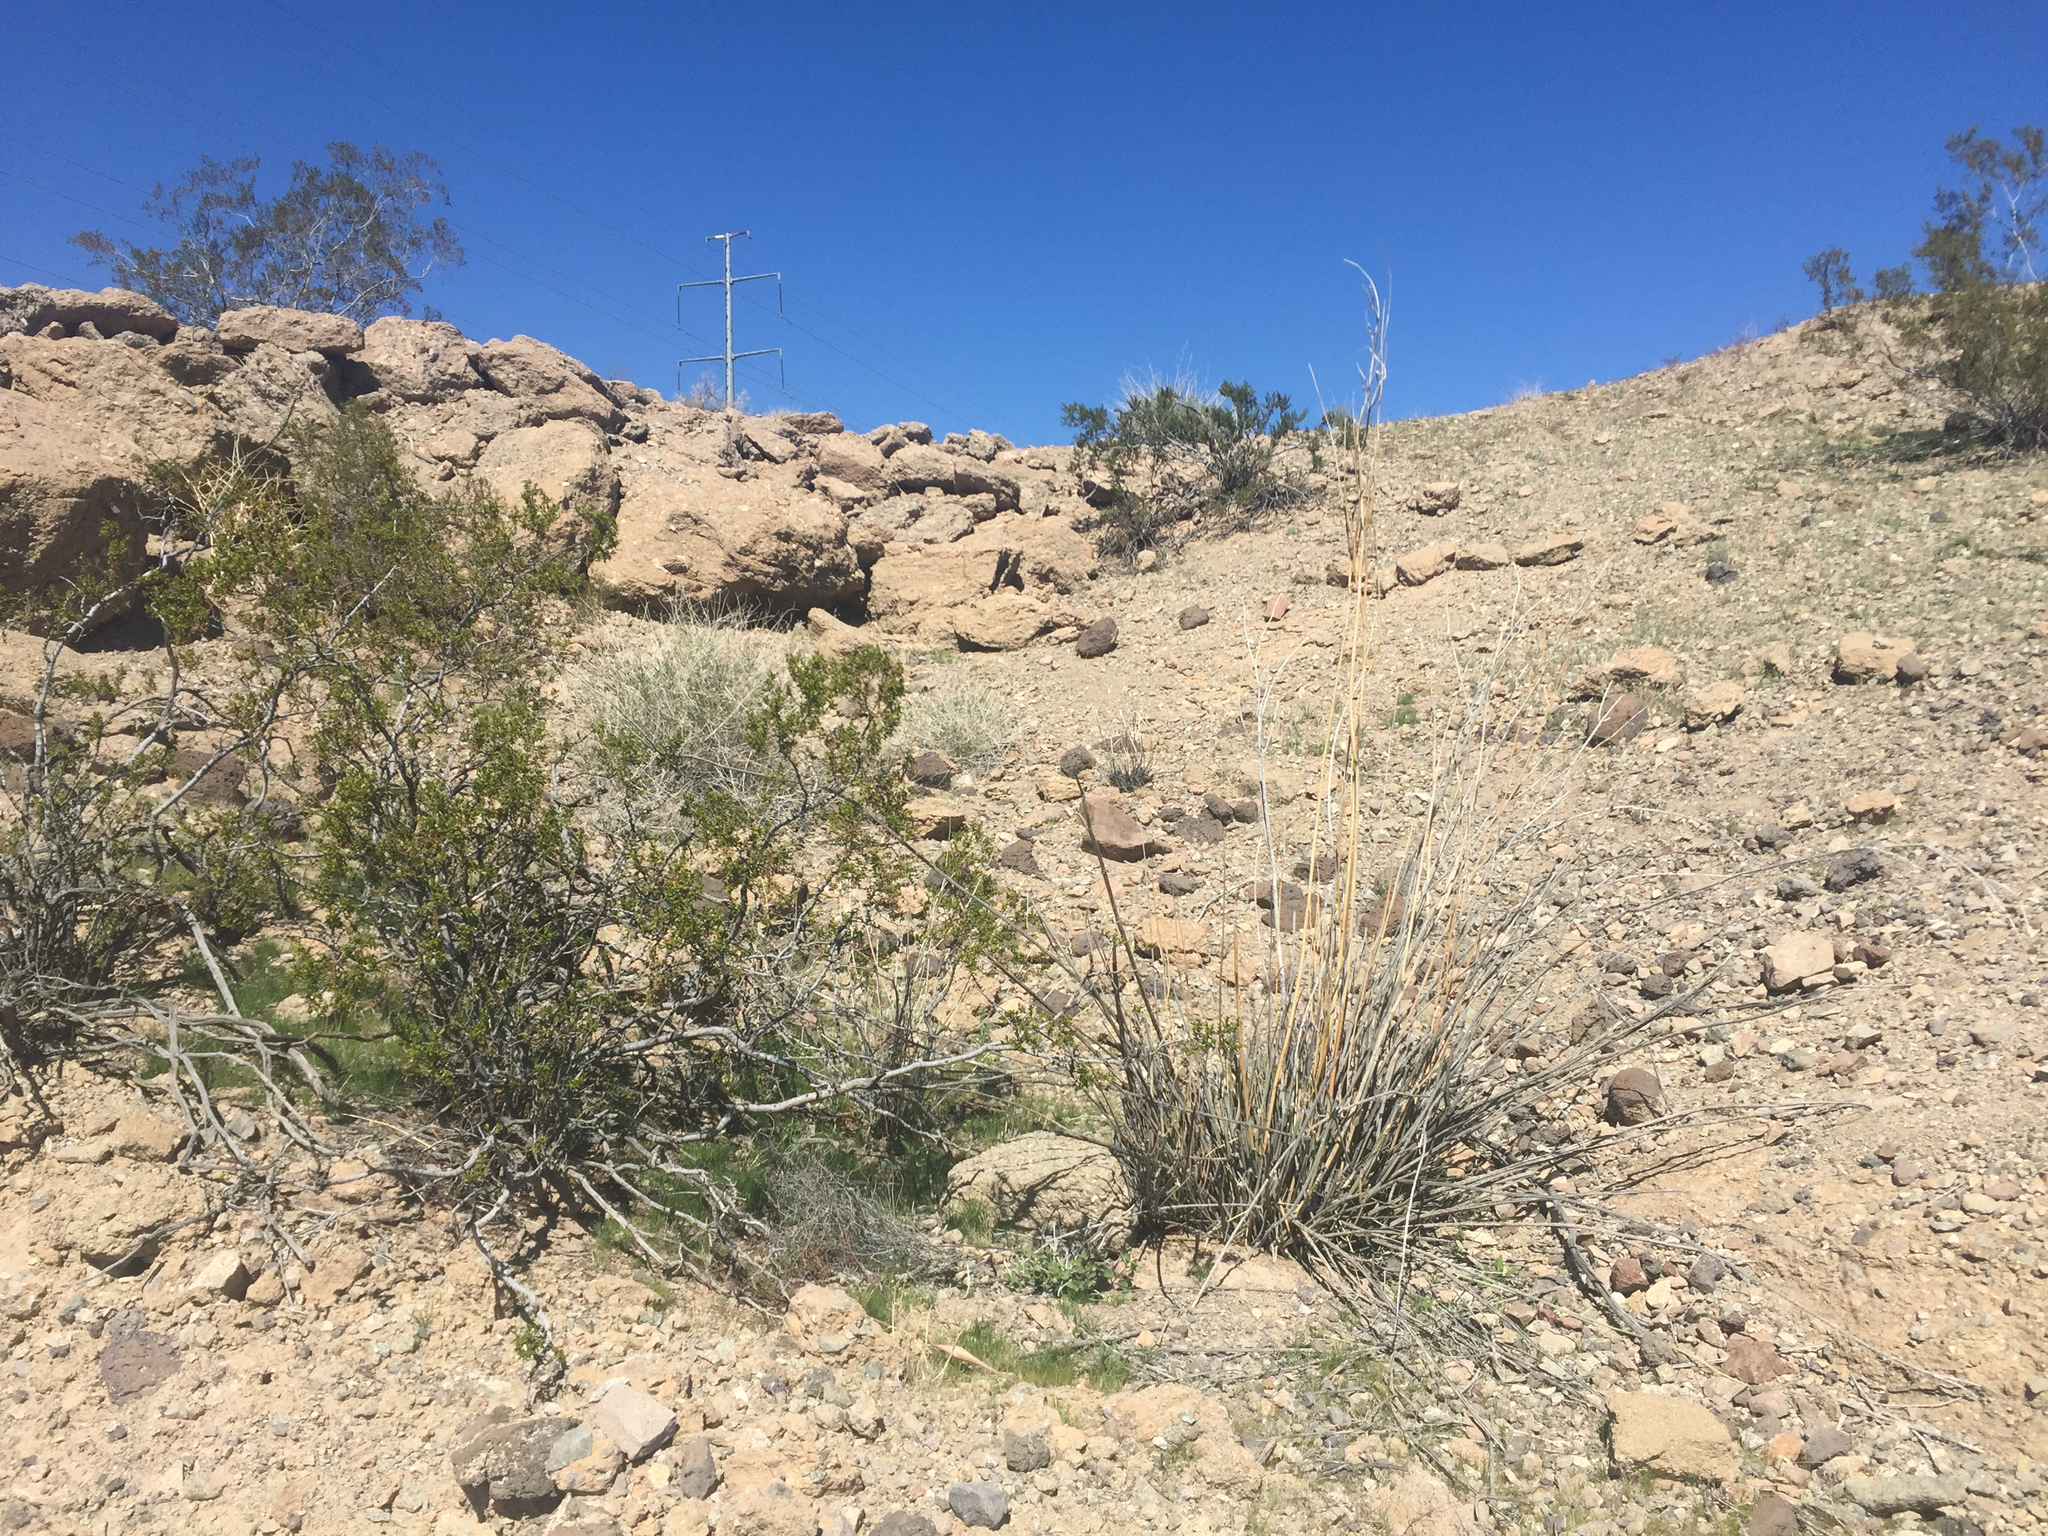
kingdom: Plantae
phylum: Tracheophyta
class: Magnoliopsida
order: Zygophyllales
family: Zygophyllaceae
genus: Larrea
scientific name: Larrea tridentata
